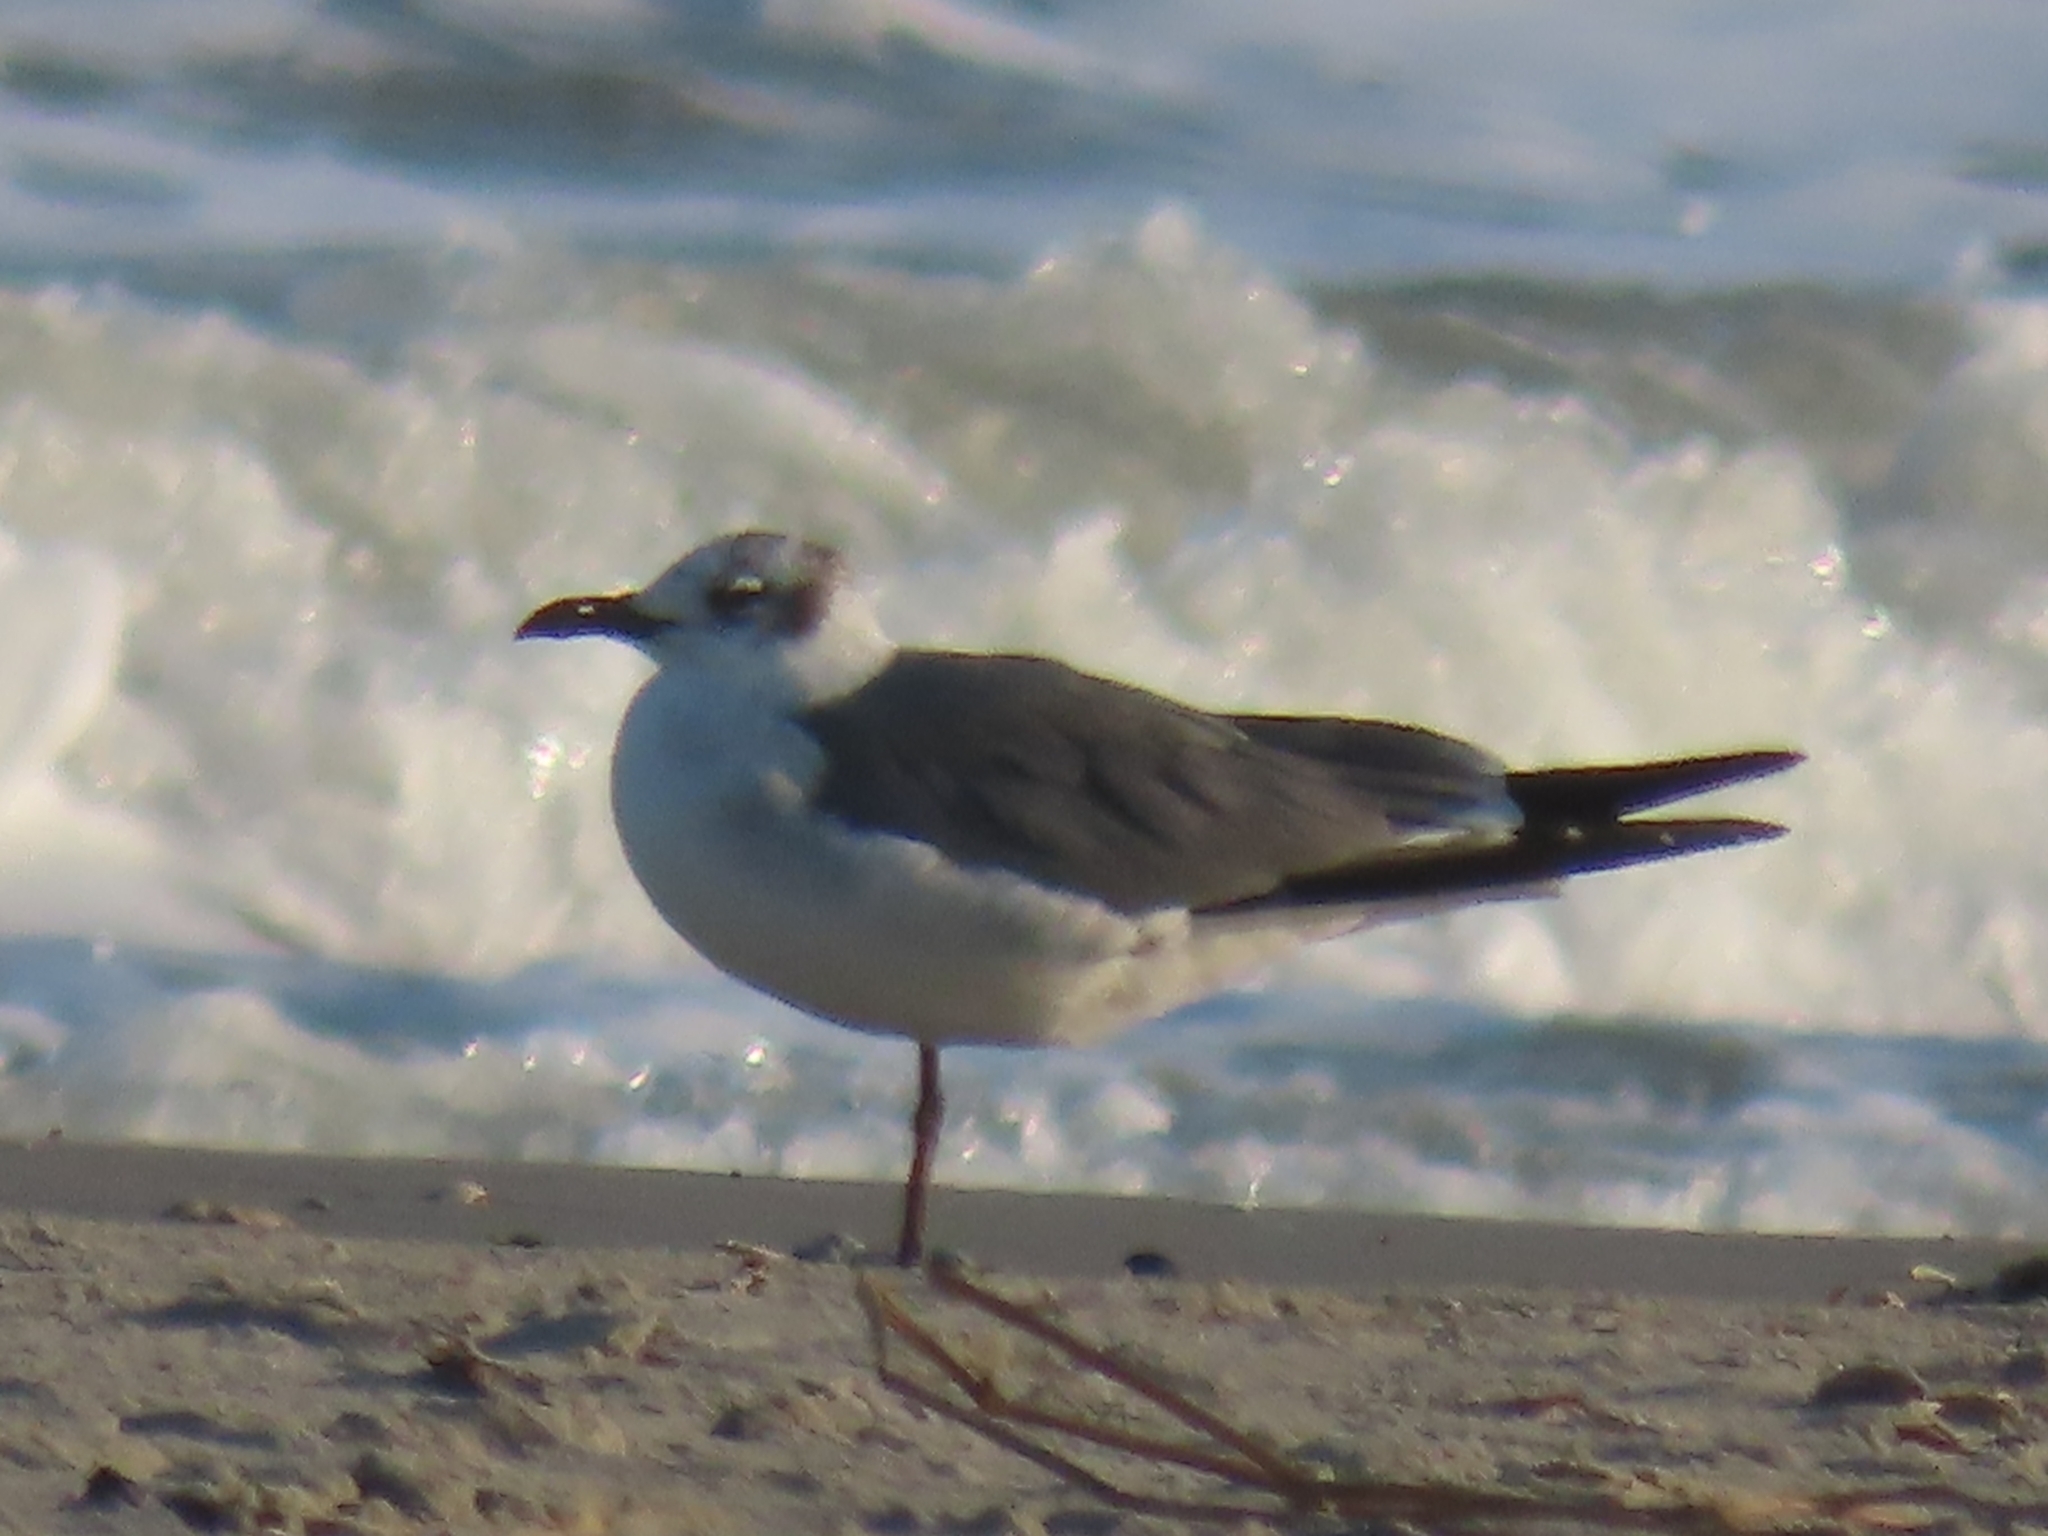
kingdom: Animalia
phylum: Chordata
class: Aves
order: Charadriiformes
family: Laridae
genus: Leucophaeus
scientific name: Leucophaeus atricilla
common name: Laughing gull
